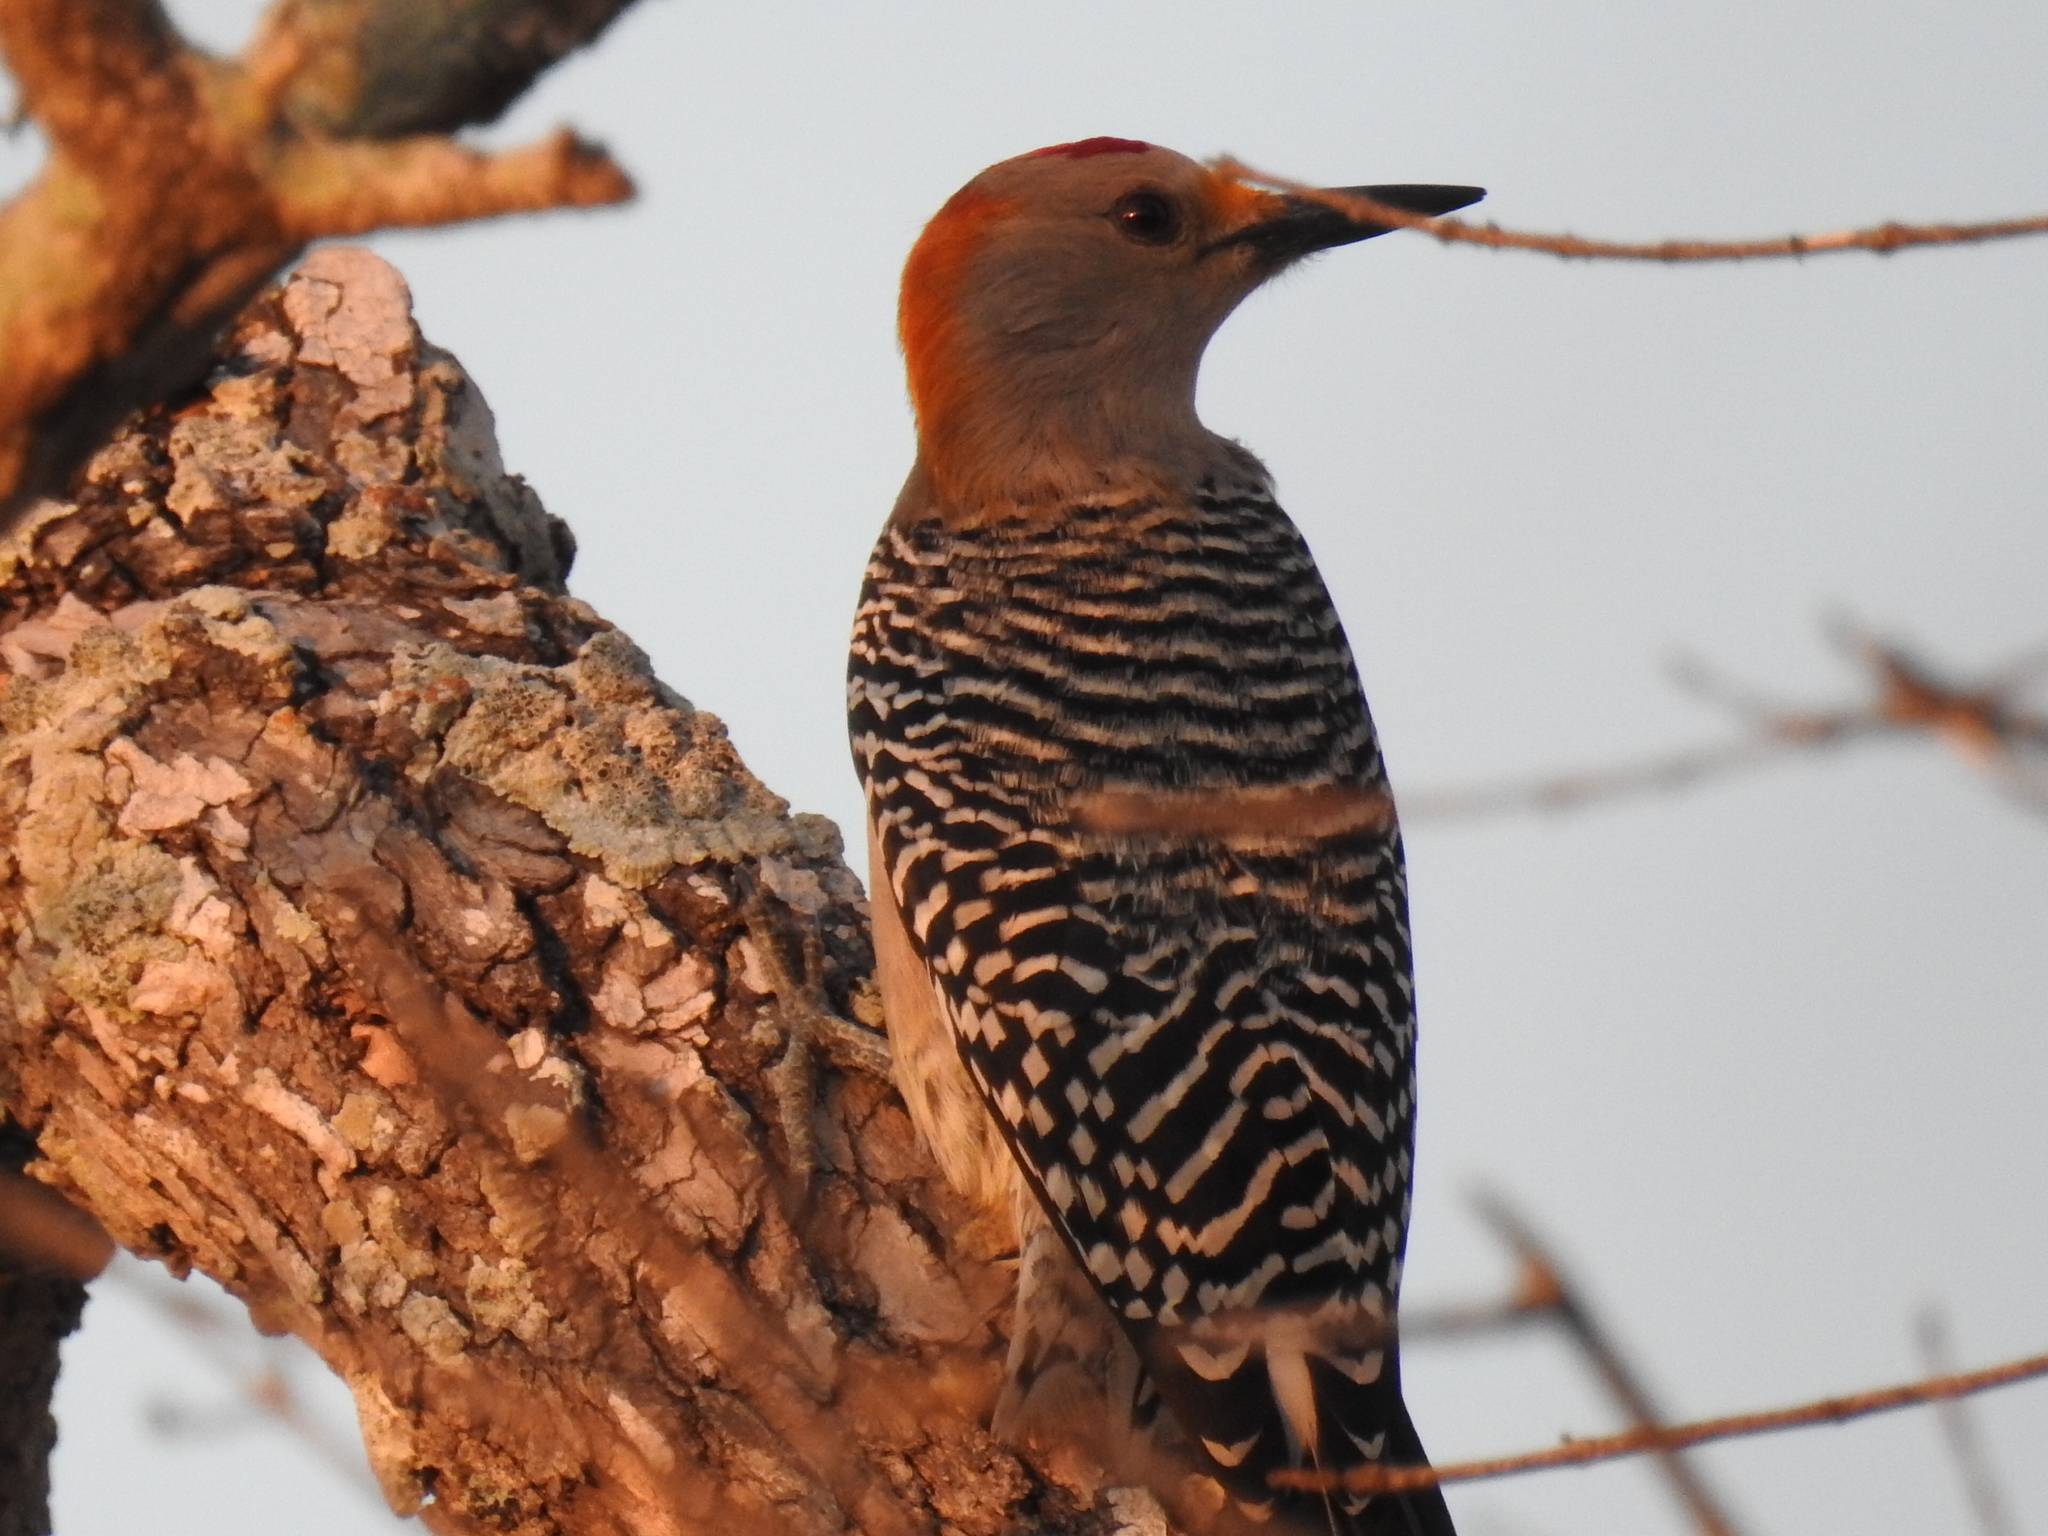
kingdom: Animalia
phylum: Chordata
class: Aves
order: Piciformes
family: Picidae
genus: Melanerpes
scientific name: Melanerpes aurifrons
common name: Golden-fronted woodpecker
